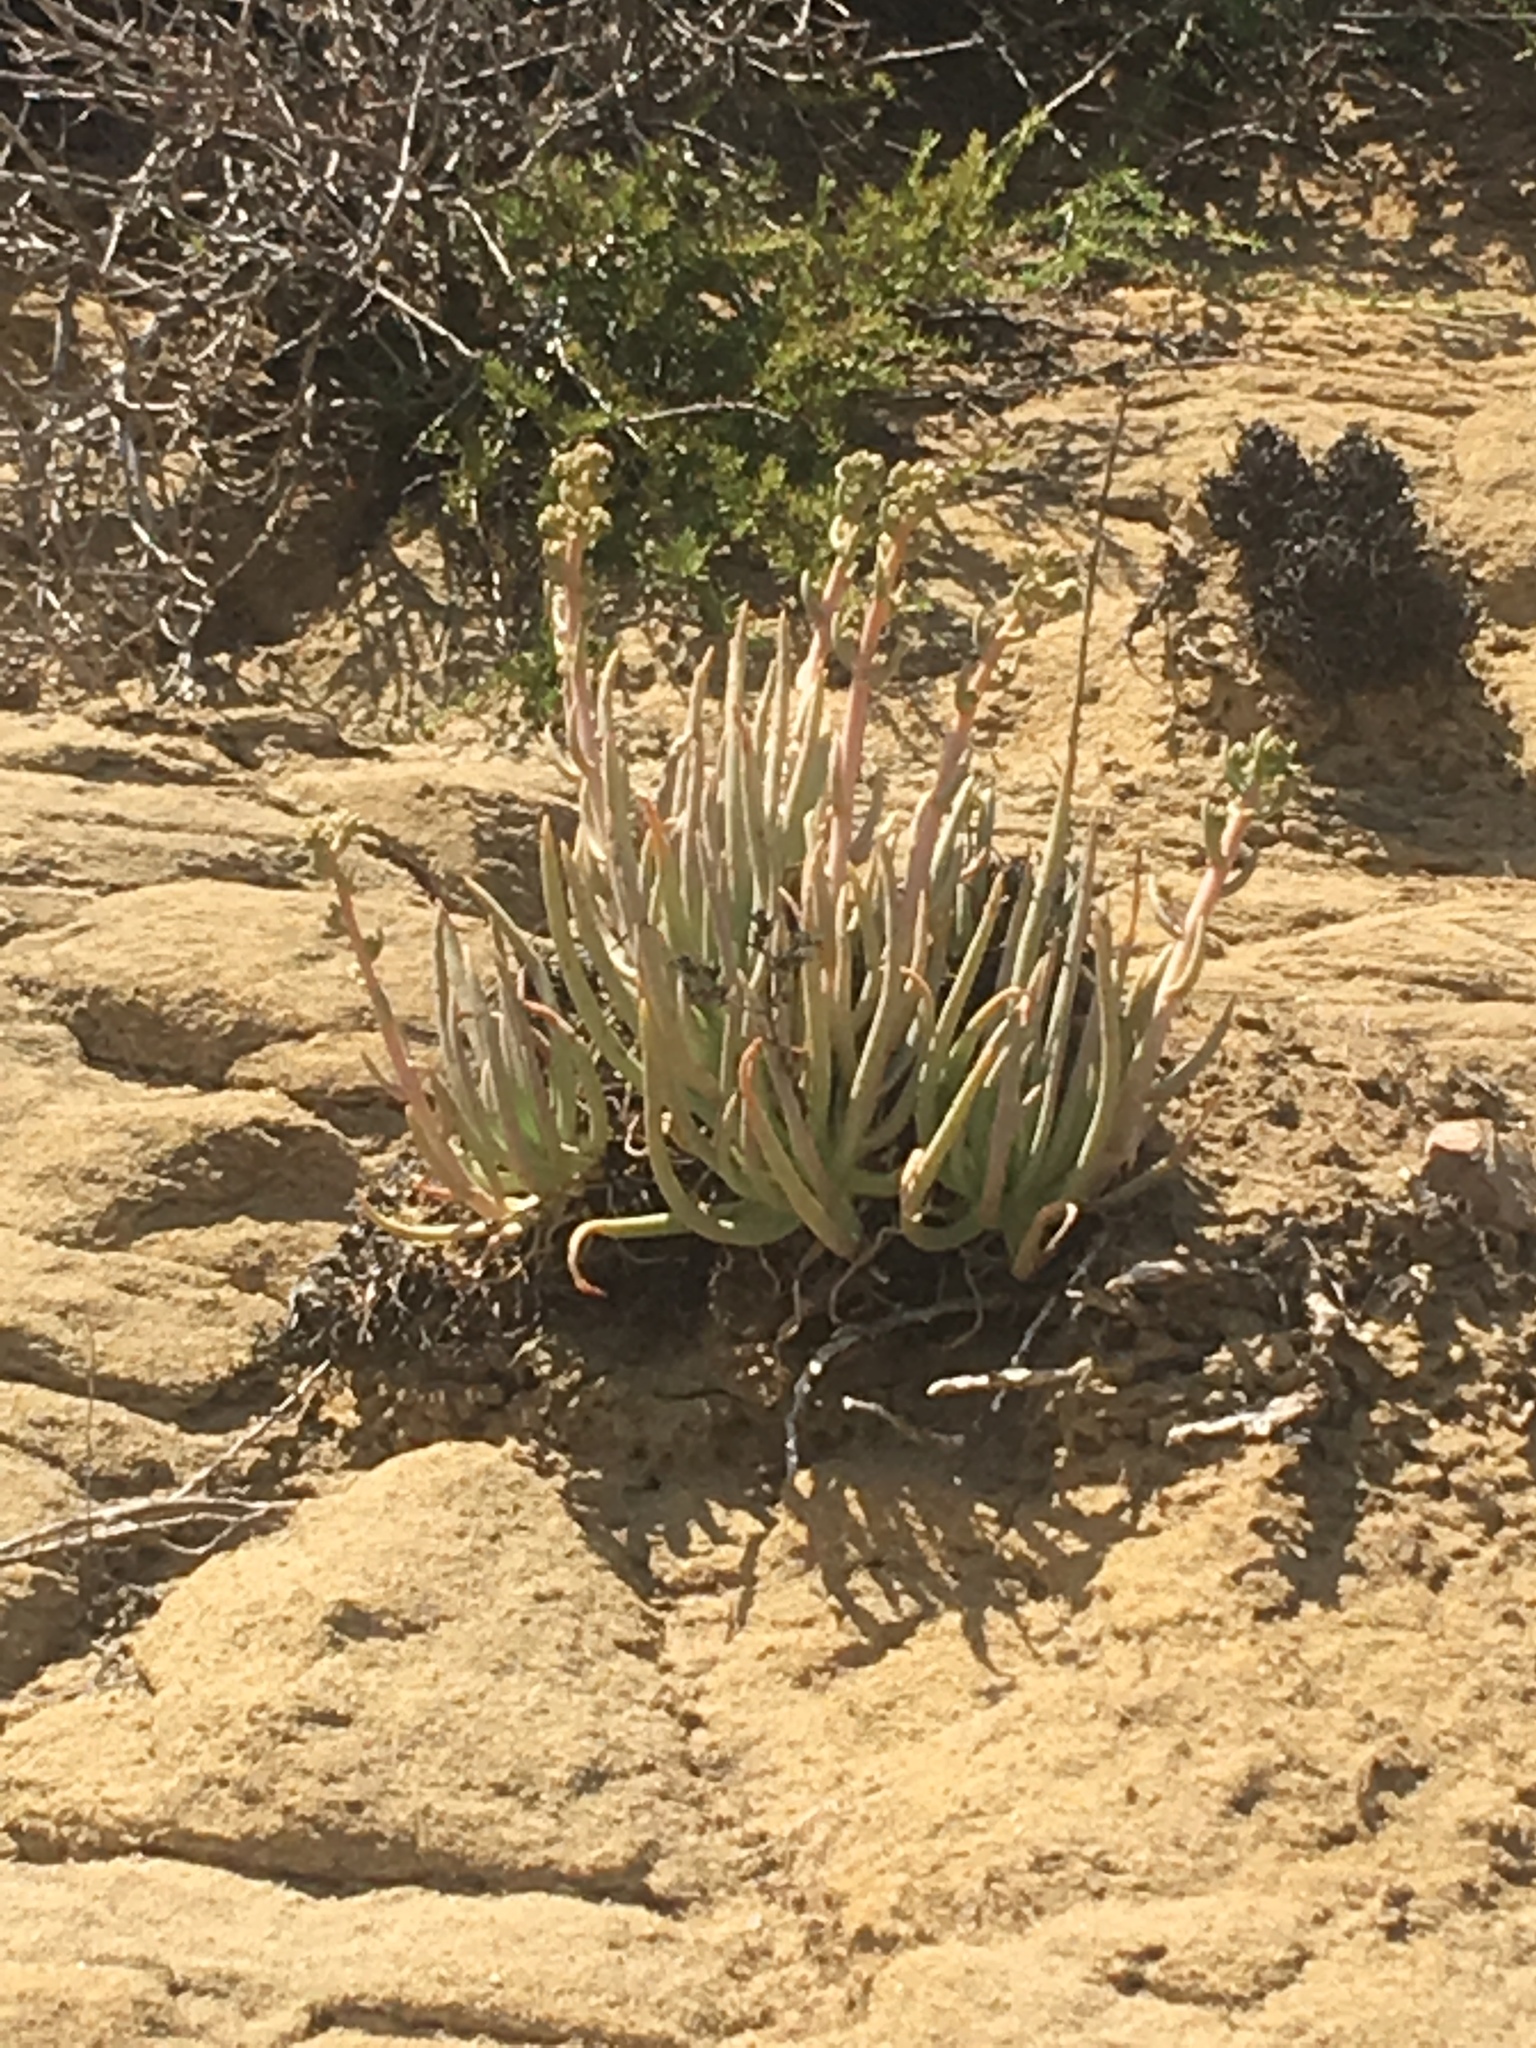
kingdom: Plantae
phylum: Tracheophyta
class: Magnoliopsida
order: Saxifragales
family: Crassulaceae
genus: Dudleya
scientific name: Dudleya edulis
